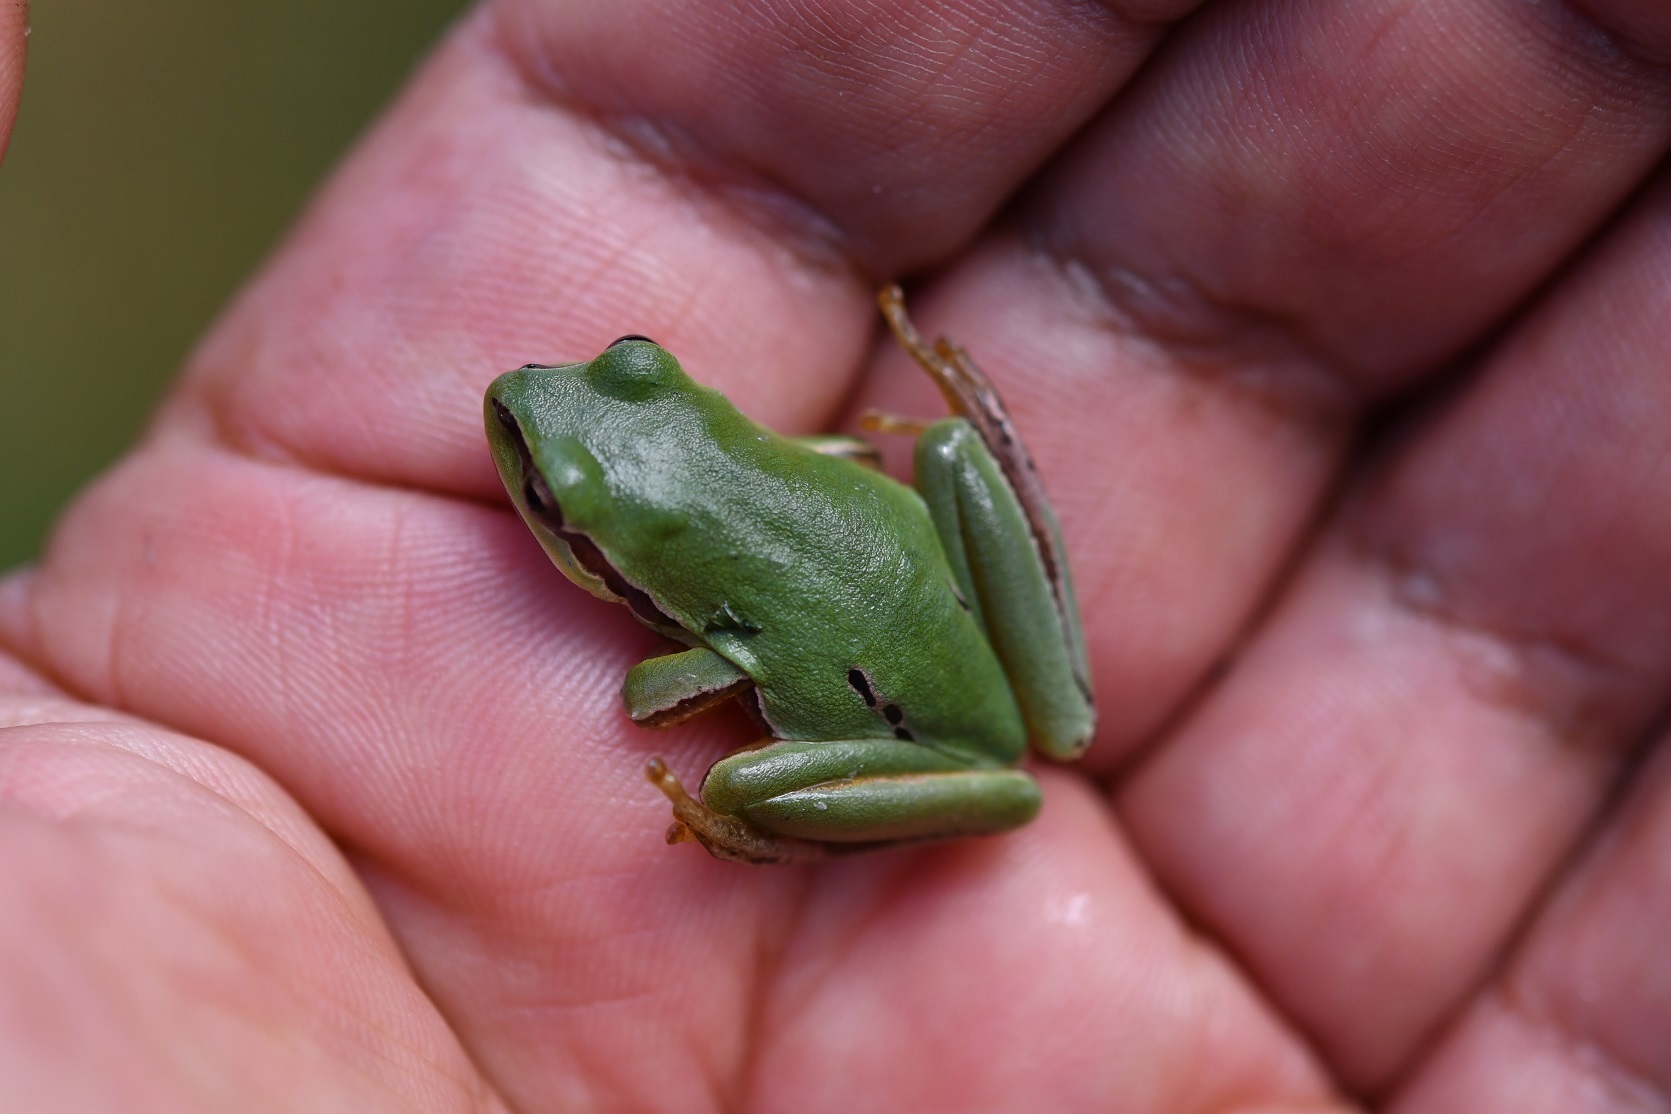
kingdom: Animalia
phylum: Chordata
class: Amphibia
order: Anura
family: Hylidae
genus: Dryophytes
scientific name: Dryophytes walkeri
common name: Walker's treefrog
